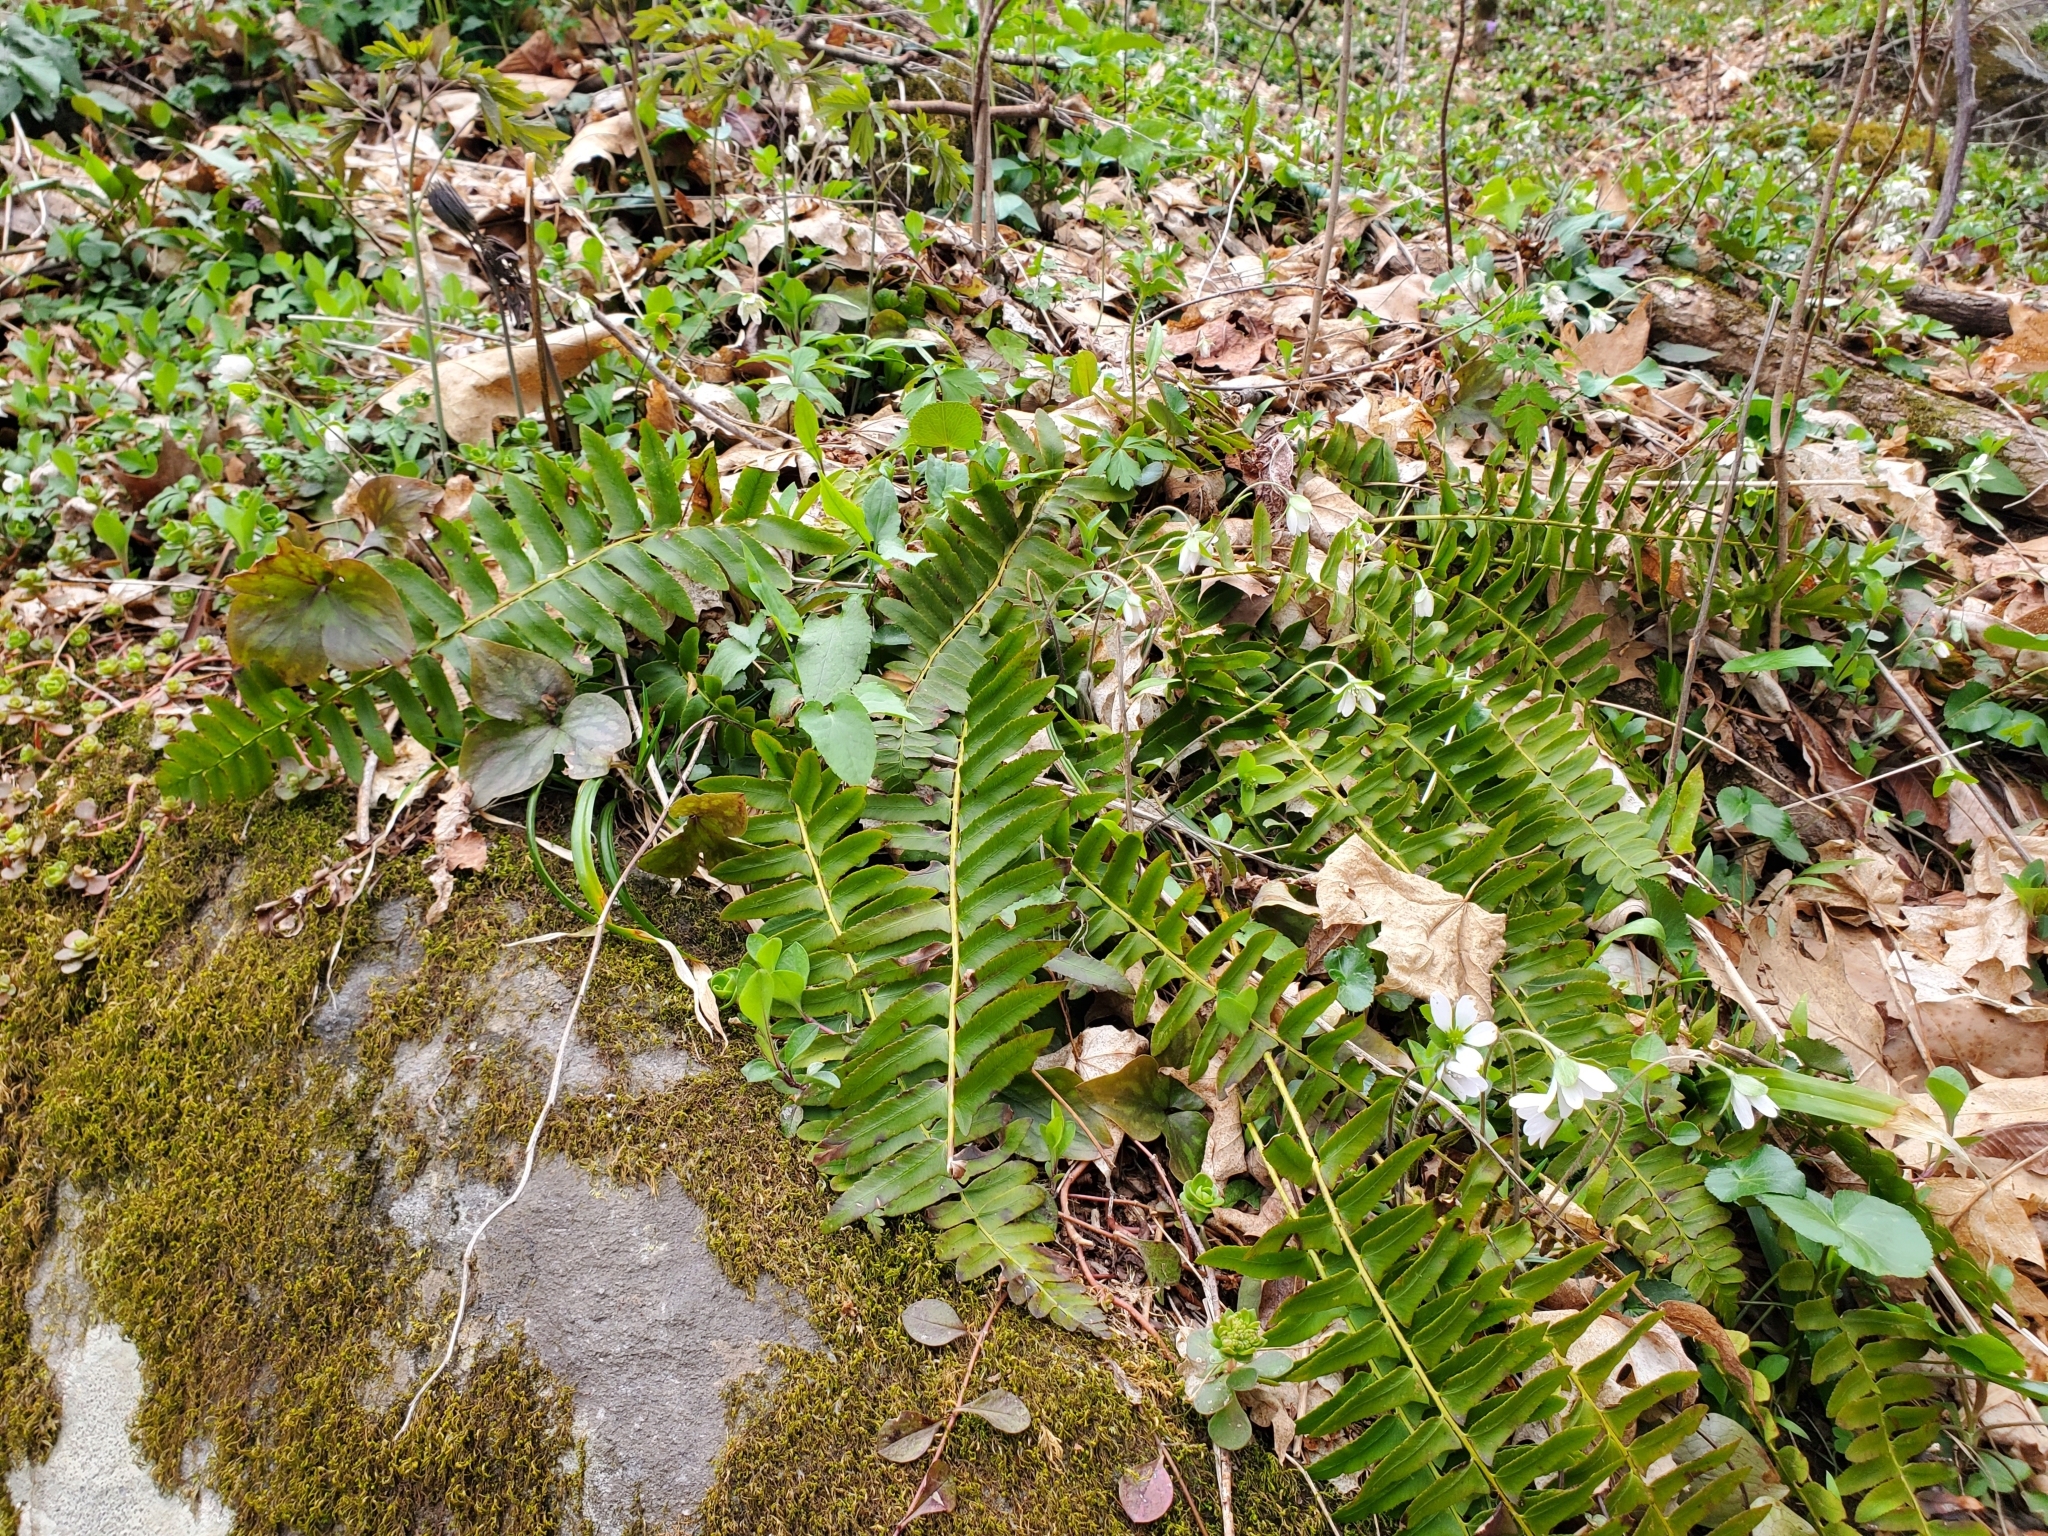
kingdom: Plantae
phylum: Tracheophyta
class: Polypodiopsida
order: Polypodiales
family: Dryopteridaceae
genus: Polystichum
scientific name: Polystichum acrostichoides
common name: Christmas fern
